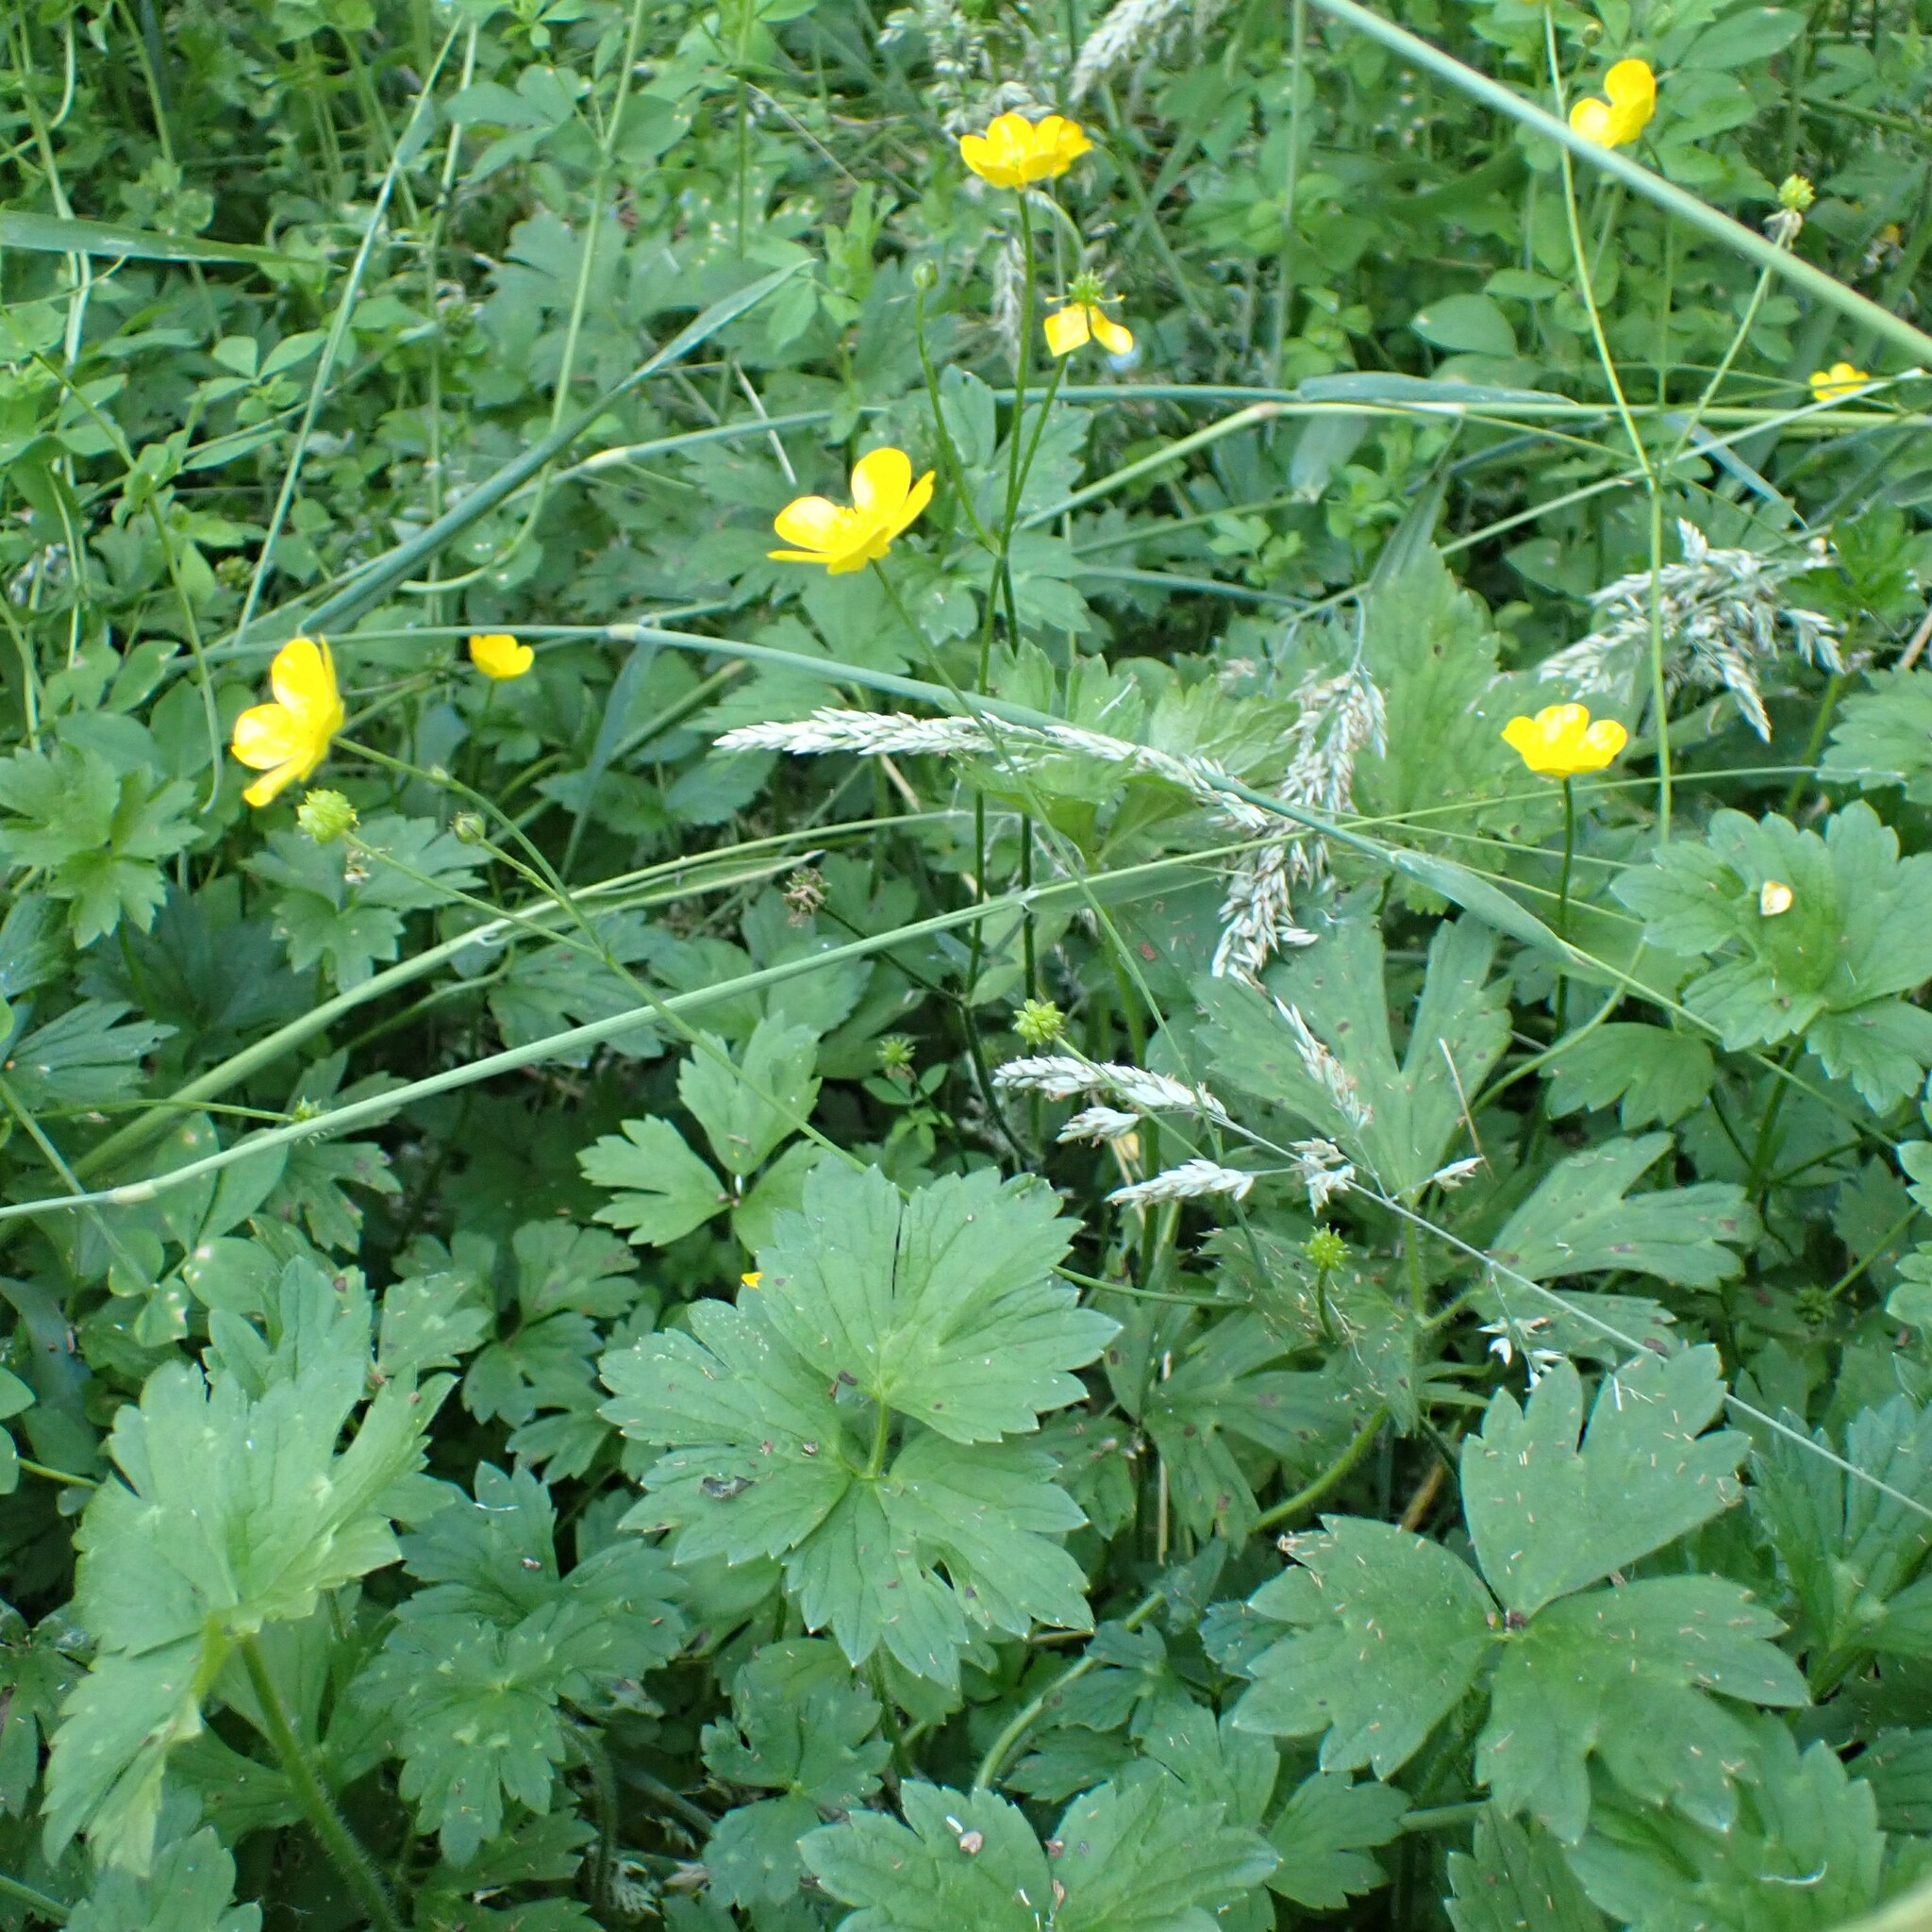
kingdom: Plantae
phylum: Tracheophyta
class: Magnoliopsida
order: Ranunculales
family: Ranunculaceae
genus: Ranunculus
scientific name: Ranunculus repens
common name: Creeping buttercup
